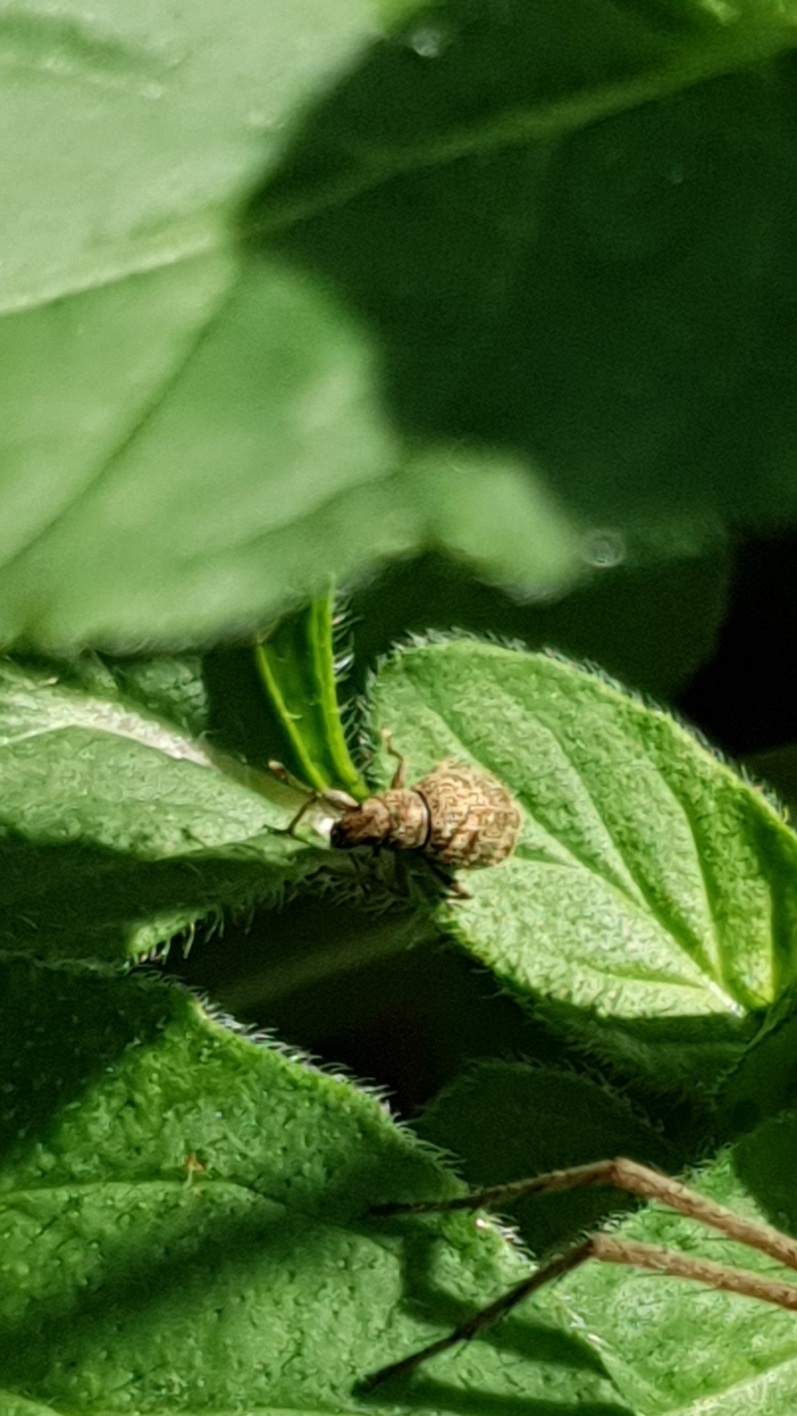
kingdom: Animalia
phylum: Arthropoda
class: Insecta
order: Coleoptera
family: Curculionidae
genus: Sciaphilus
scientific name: Sciaphilus asperatus
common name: Weevil
